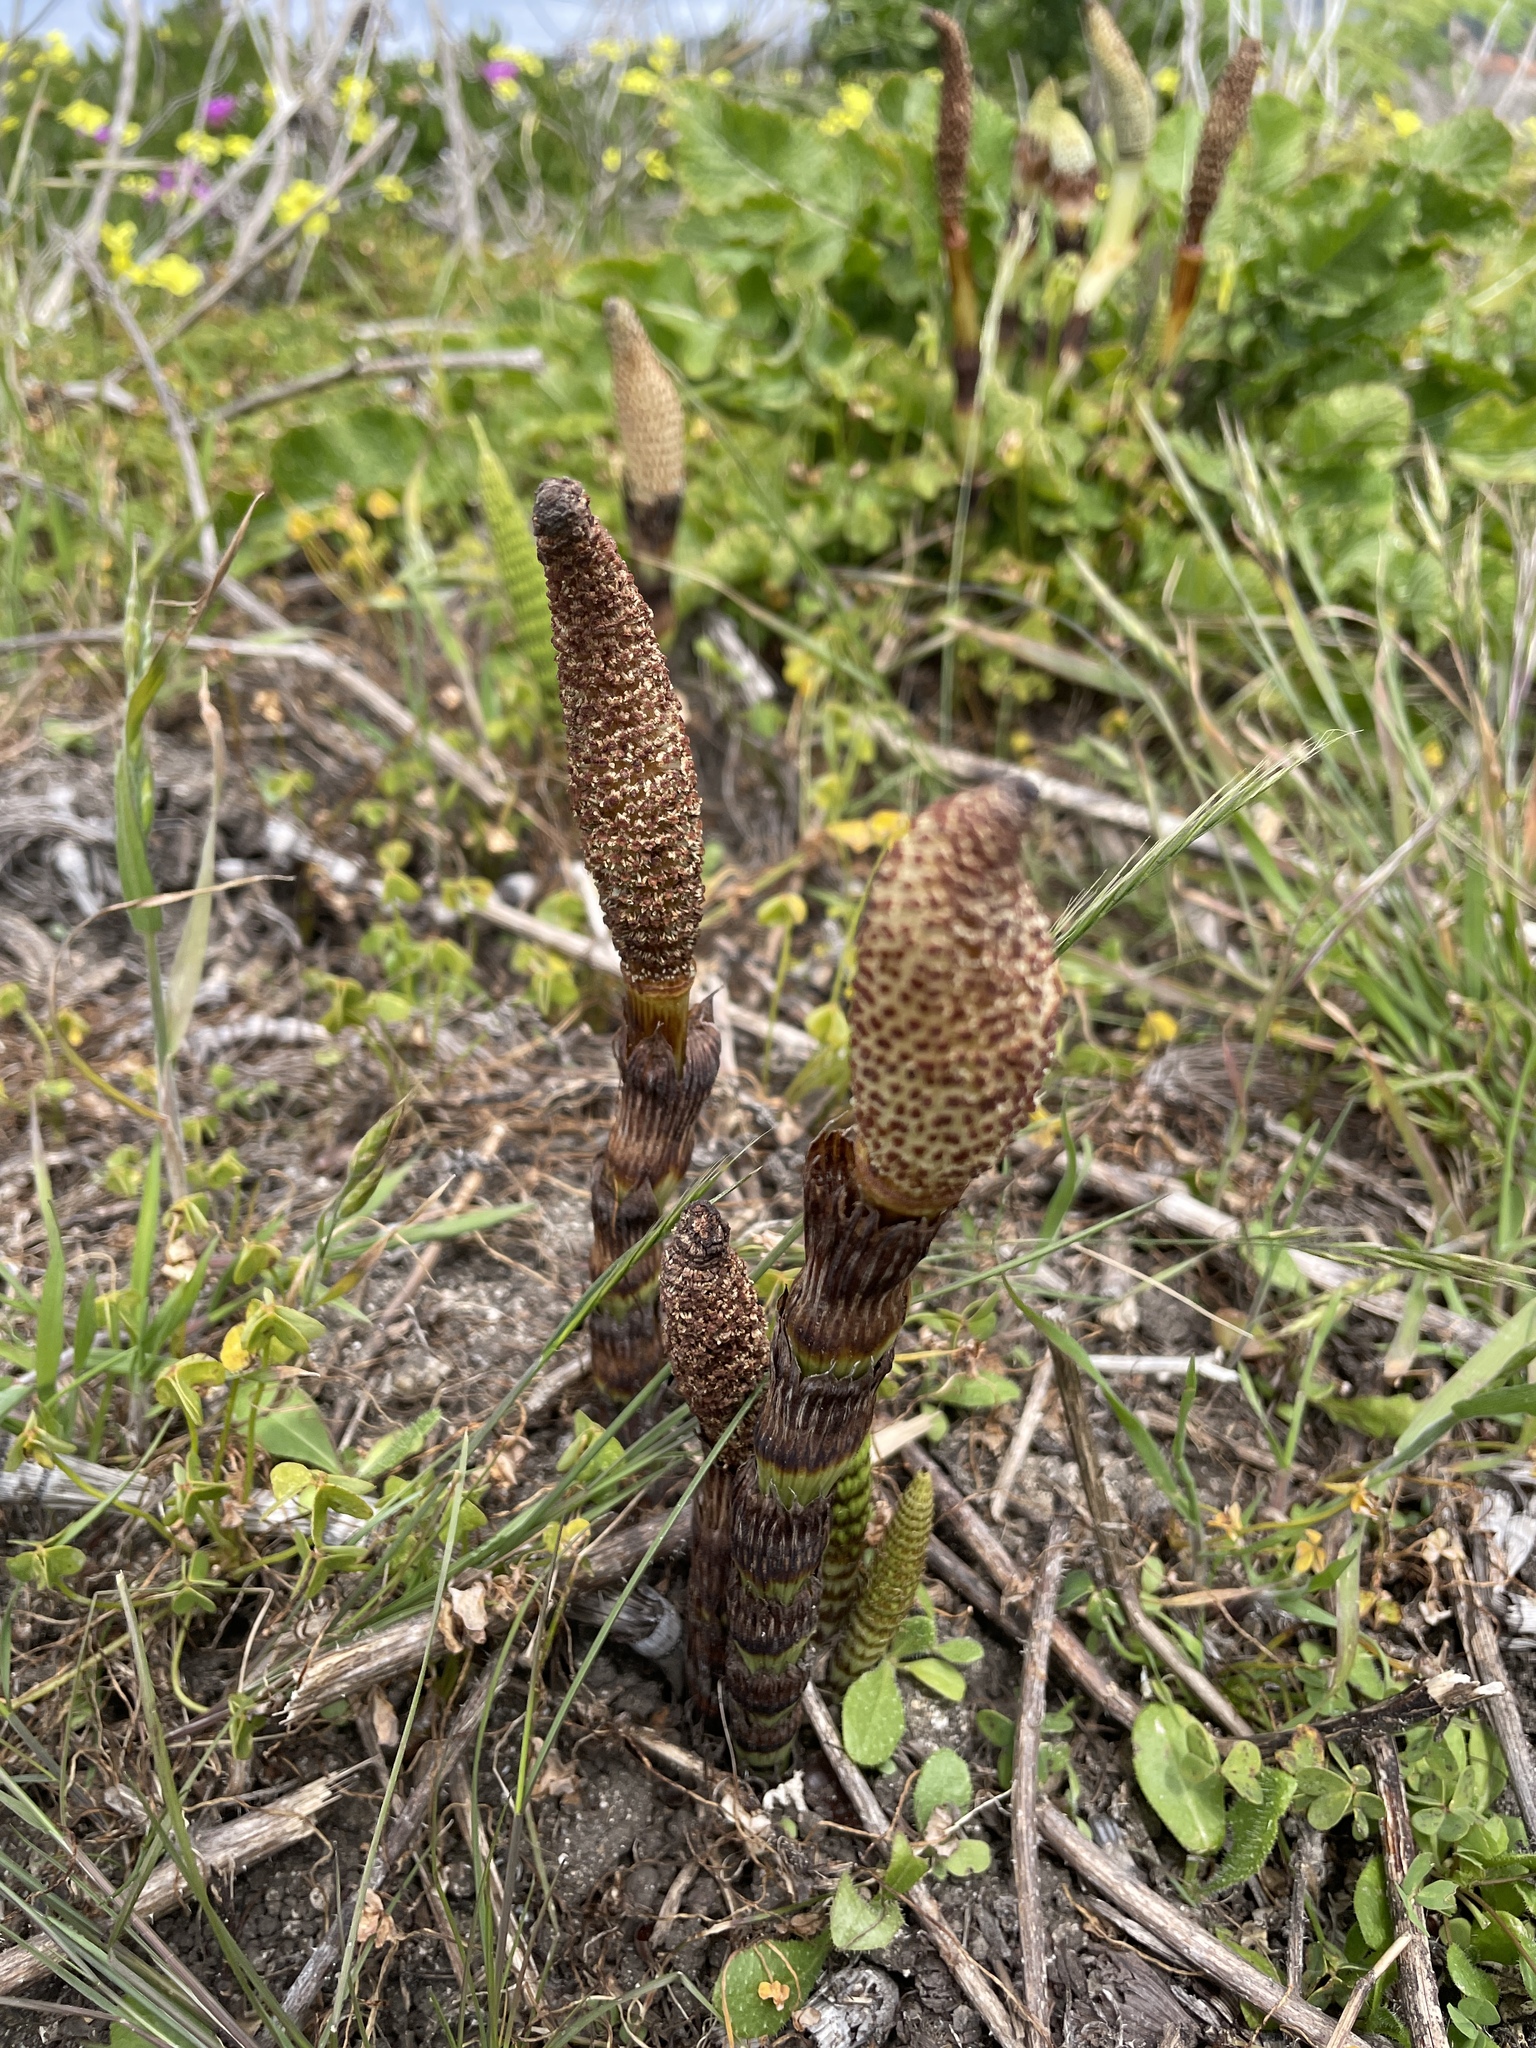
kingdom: Plantae
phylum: Tracheophyta
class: Polypodiopsida
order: Equisetales
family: Equisetaceae
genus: Equisetum
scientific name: Equisetum braunii
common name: Braun's horsetail
